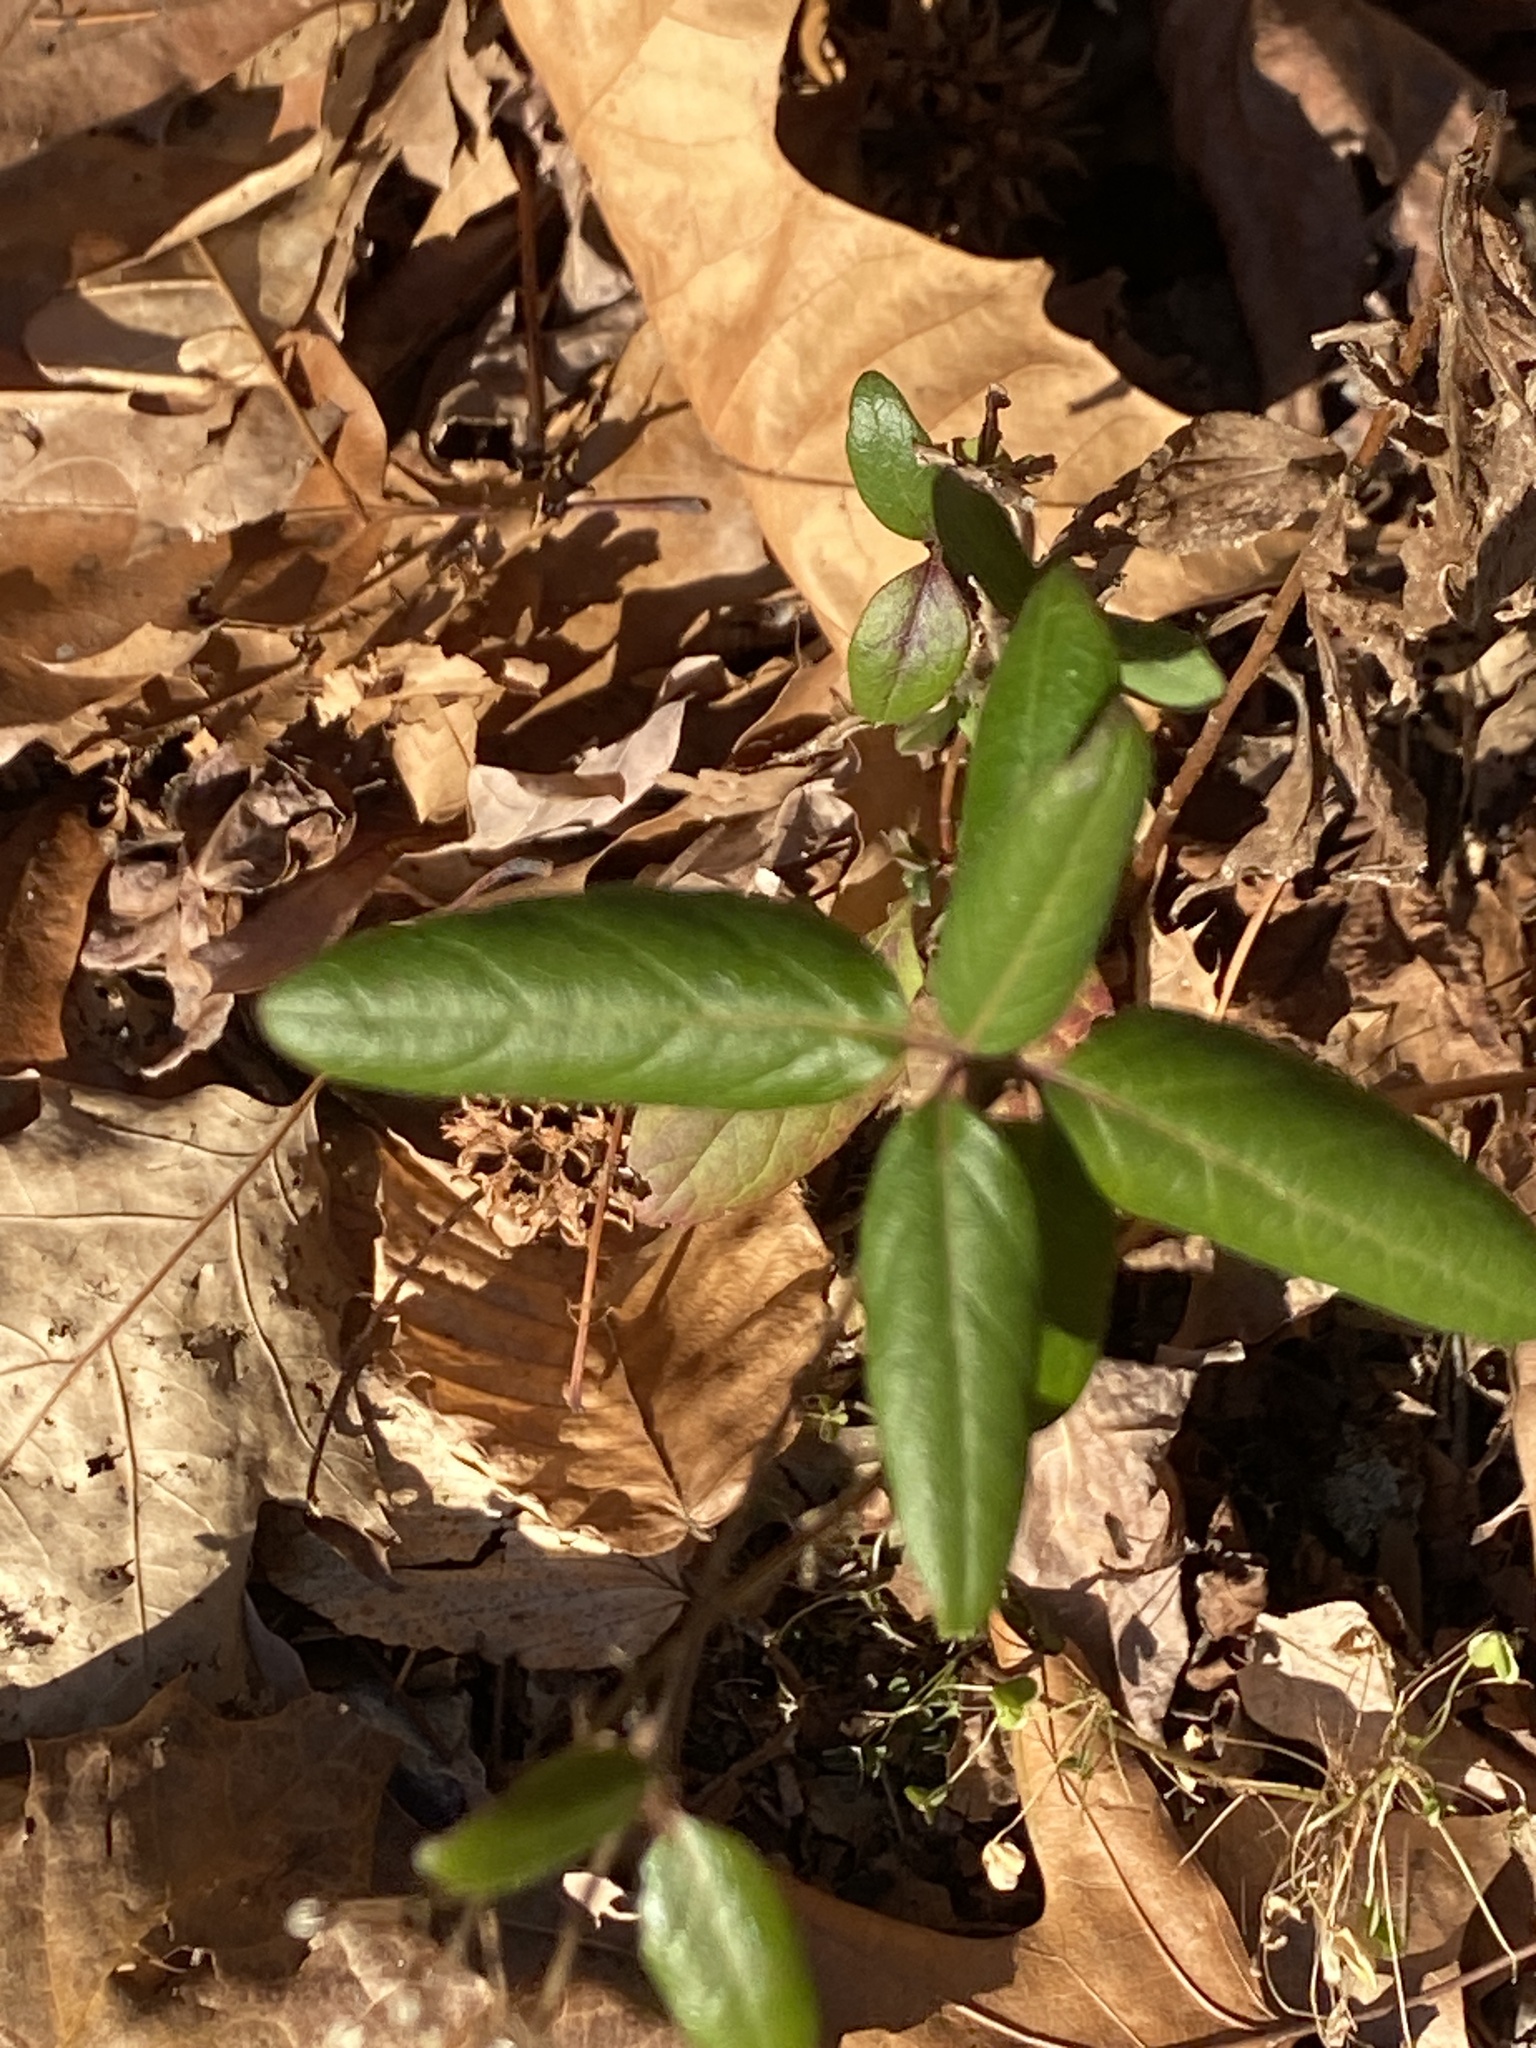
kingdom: Plantae
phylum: Tracheophyta
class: Magnoliopsida
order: Dipsacales
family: Caprifoliaceae
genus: Lonicera
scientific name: Lonicera japonica
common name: Japanese honeysuckle
